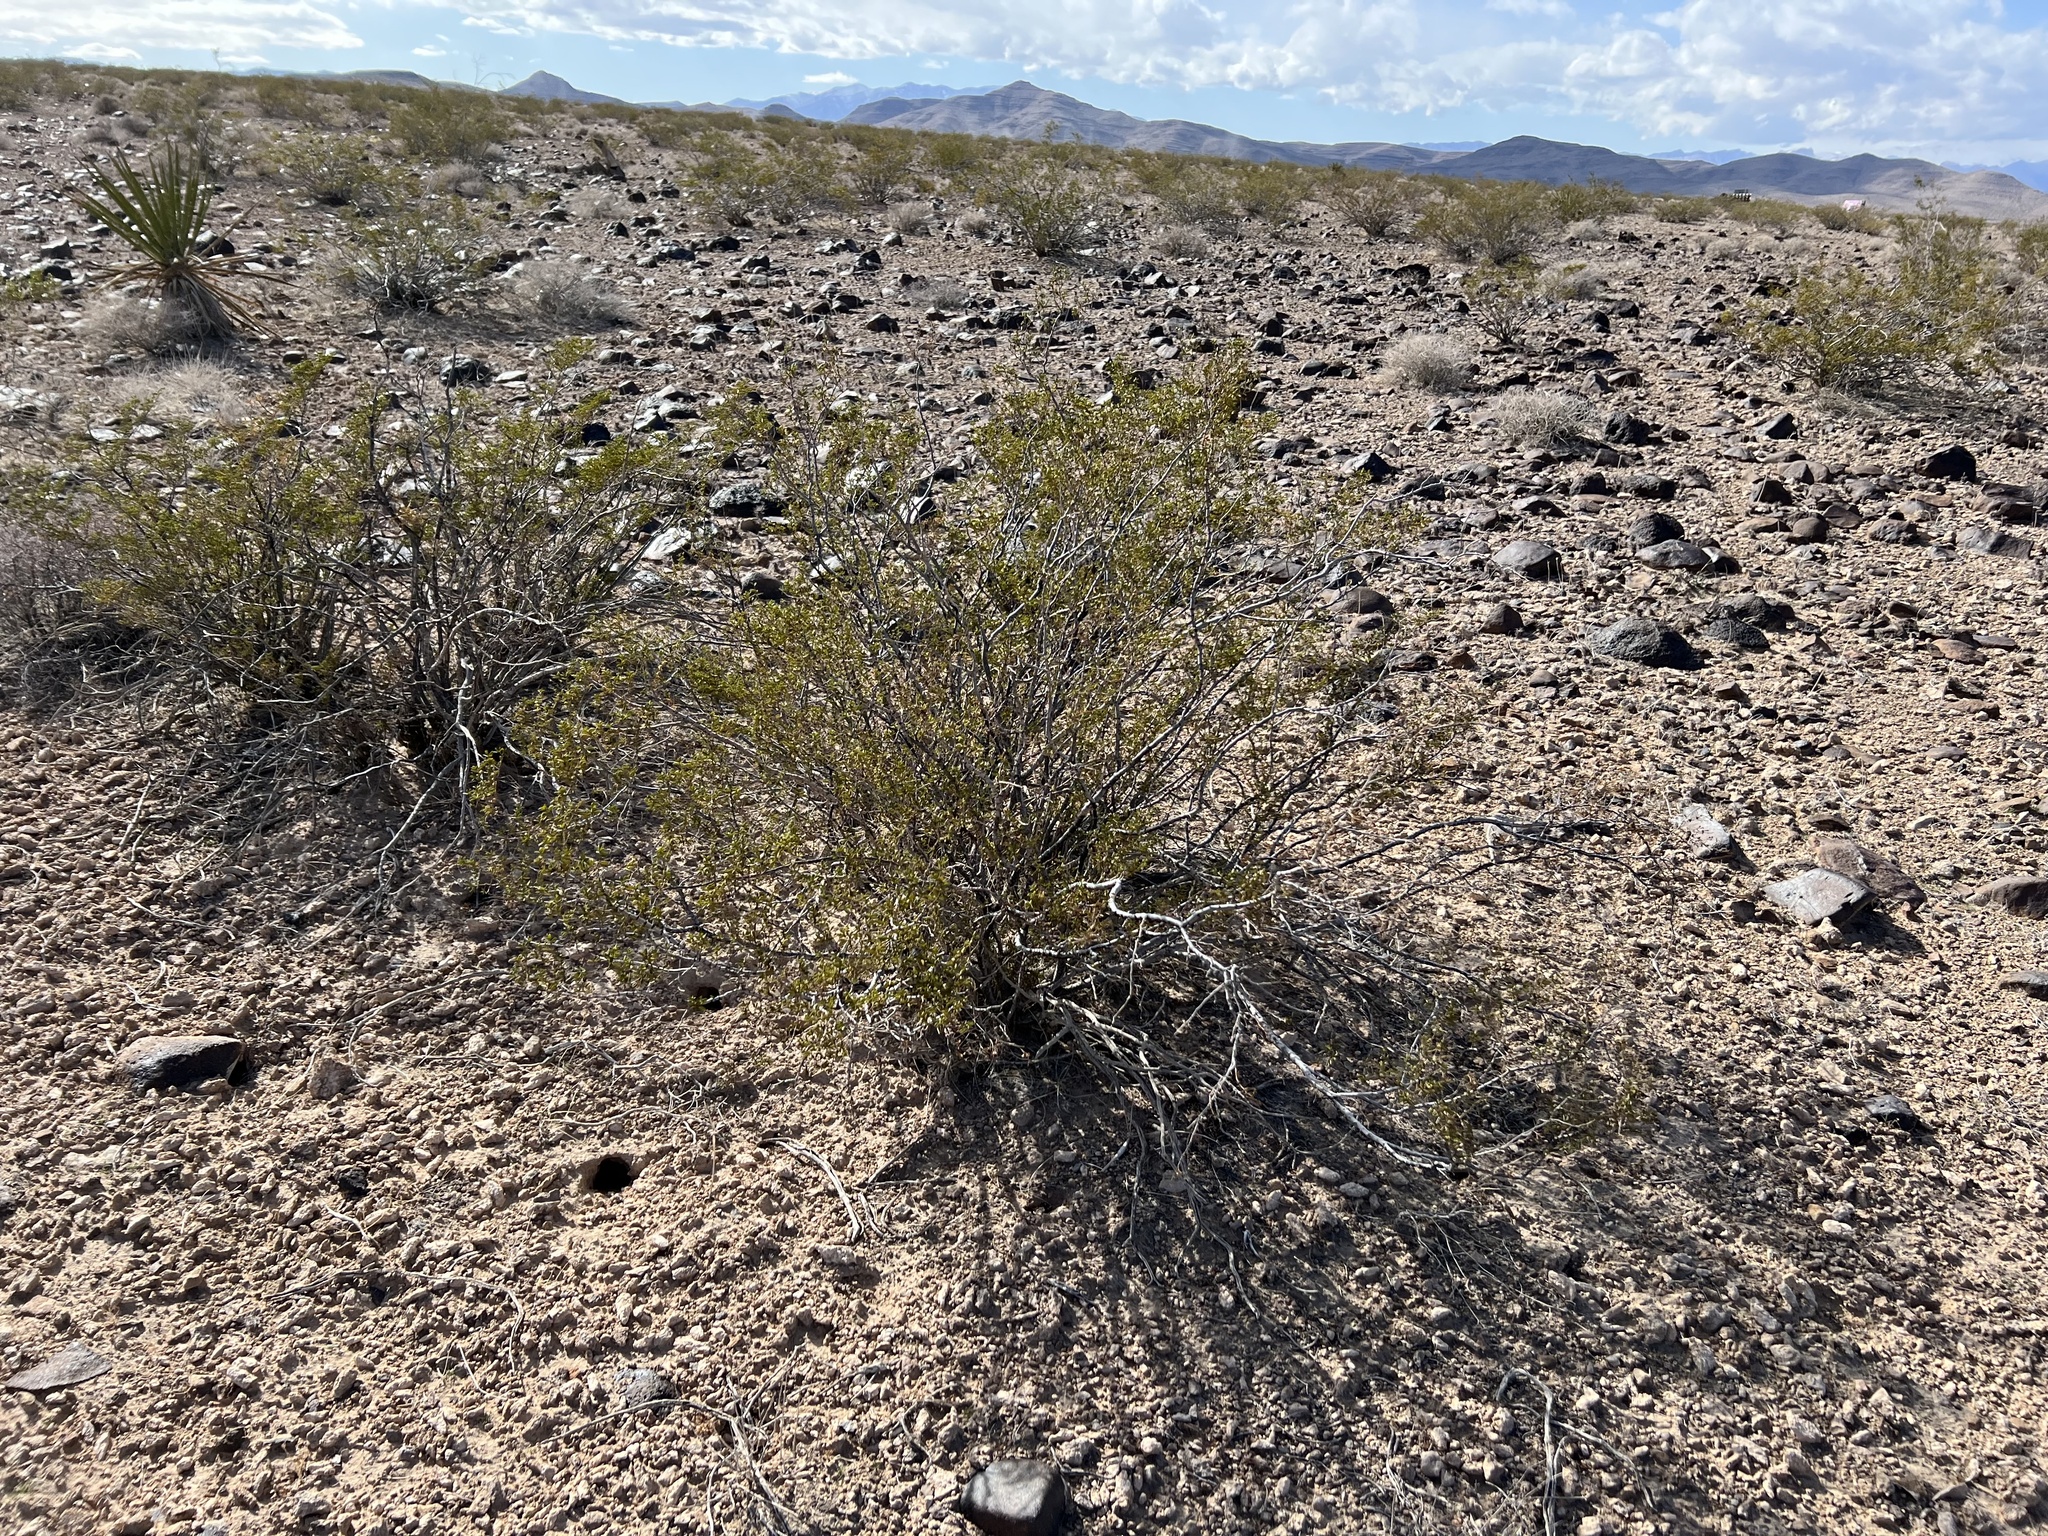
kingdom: Plantae
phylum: Tracheophyta
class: Magnoliopsida
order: Zygophyllales
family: Zygophyllaceae
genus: Larrea
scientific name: Larrea tridentata
